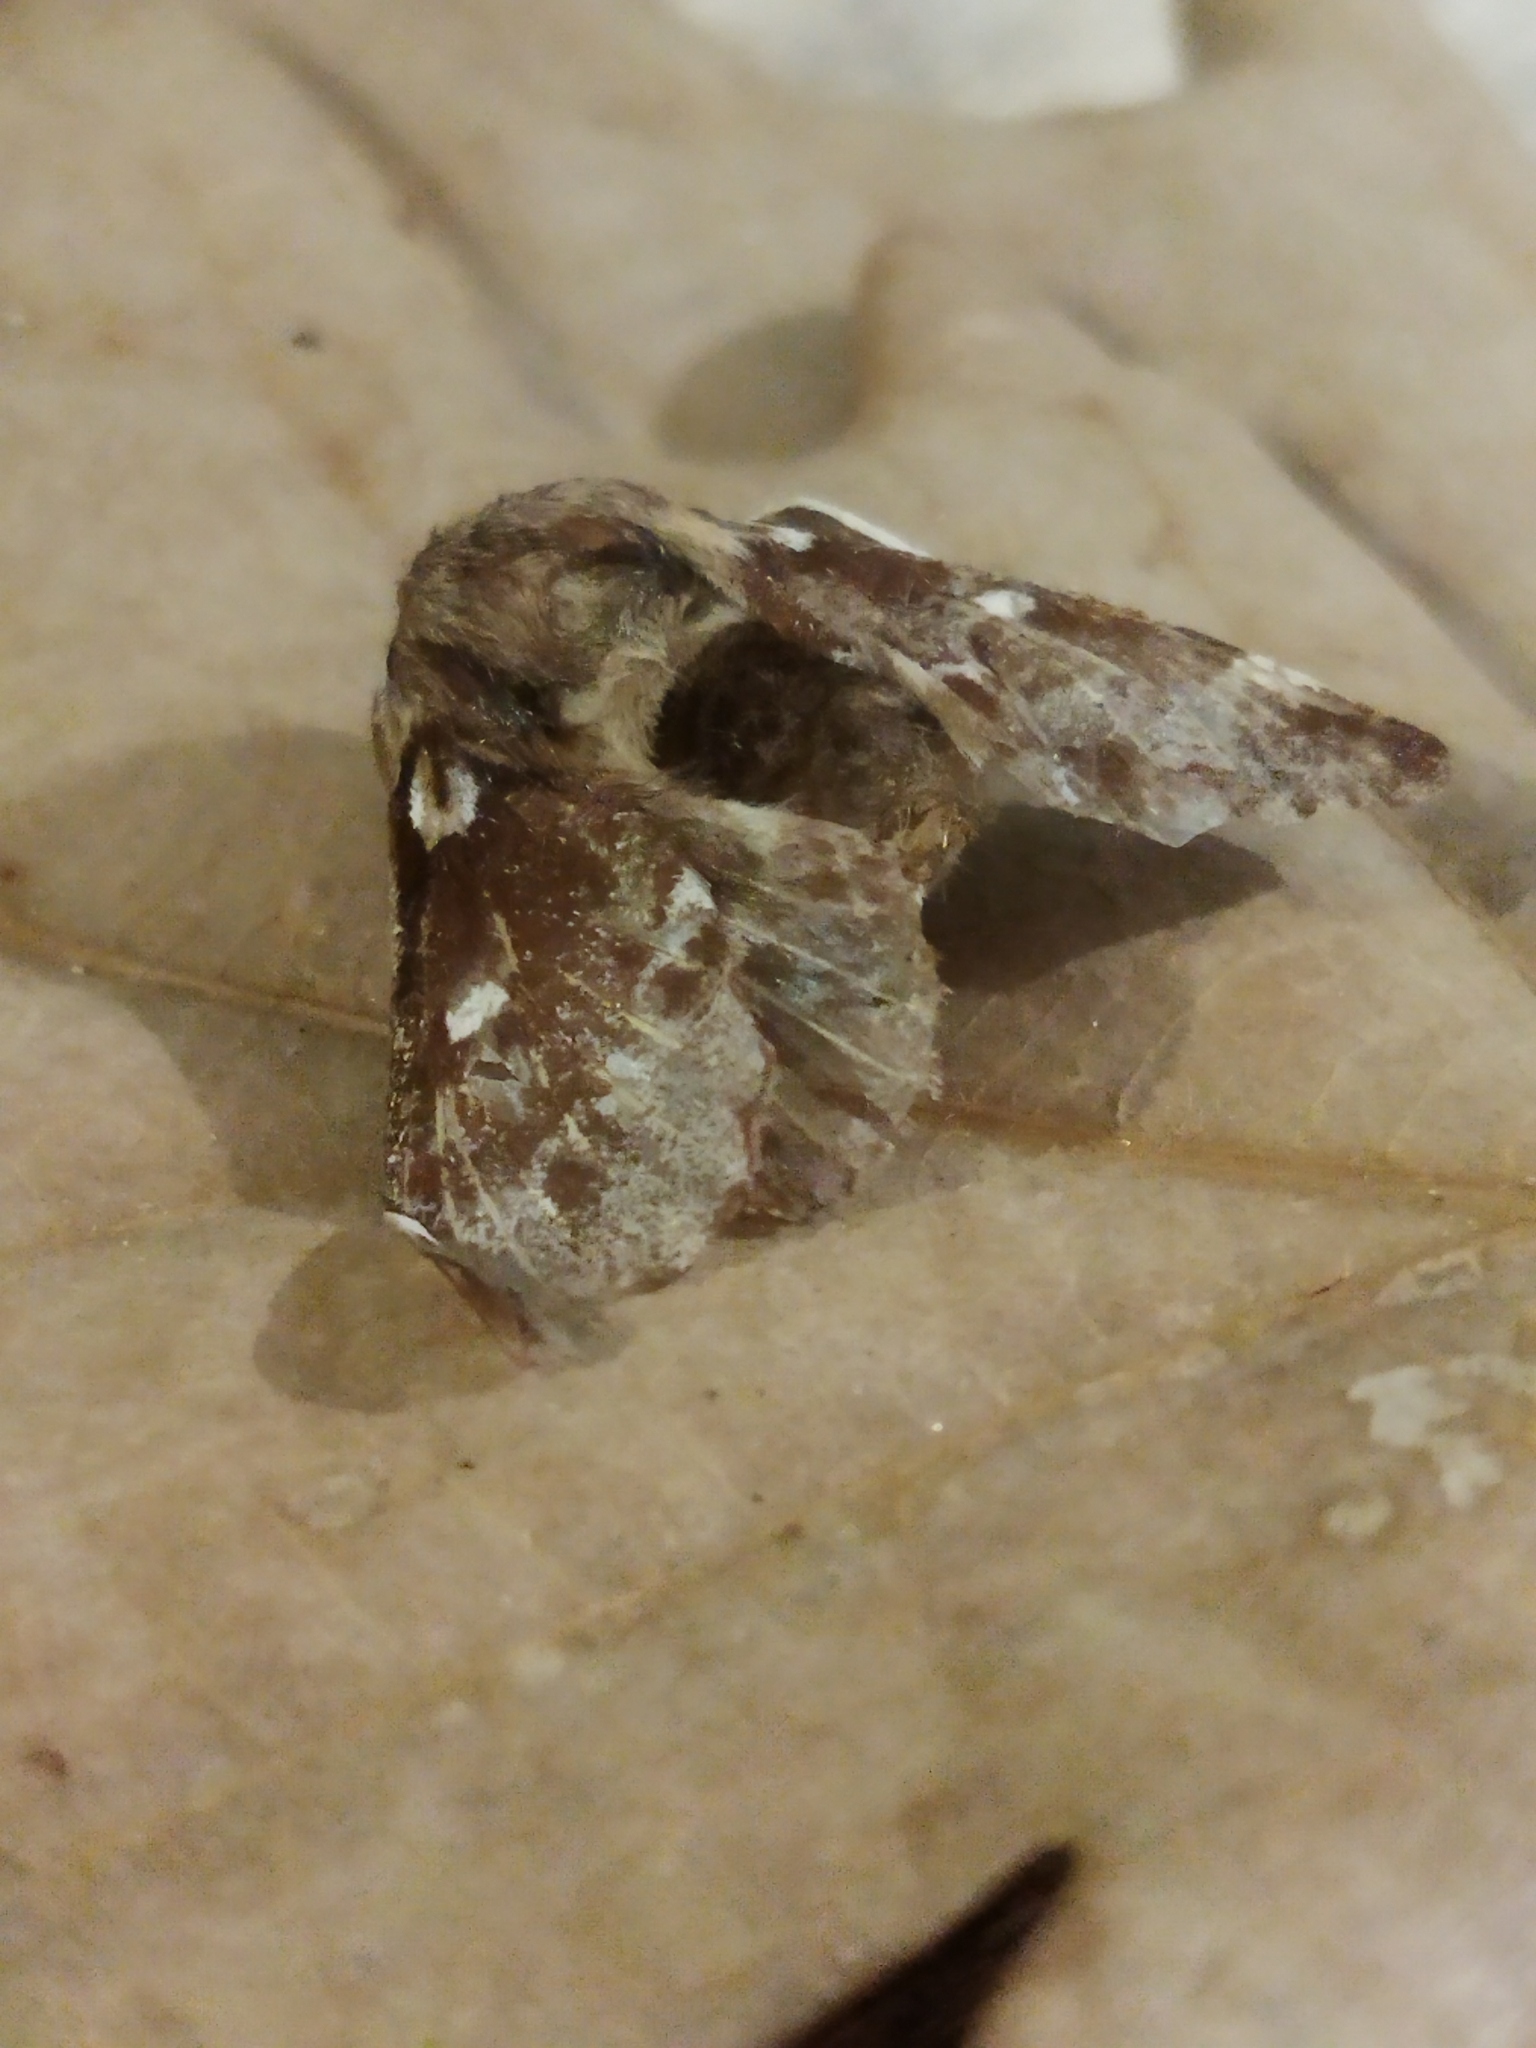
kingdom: Animalia
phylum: Arthropoda
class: Insecta
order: Lepidoptera
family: Lasiocampidae
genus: Eriogaster
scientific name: Eriogaster lanestris
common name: Small eggar
